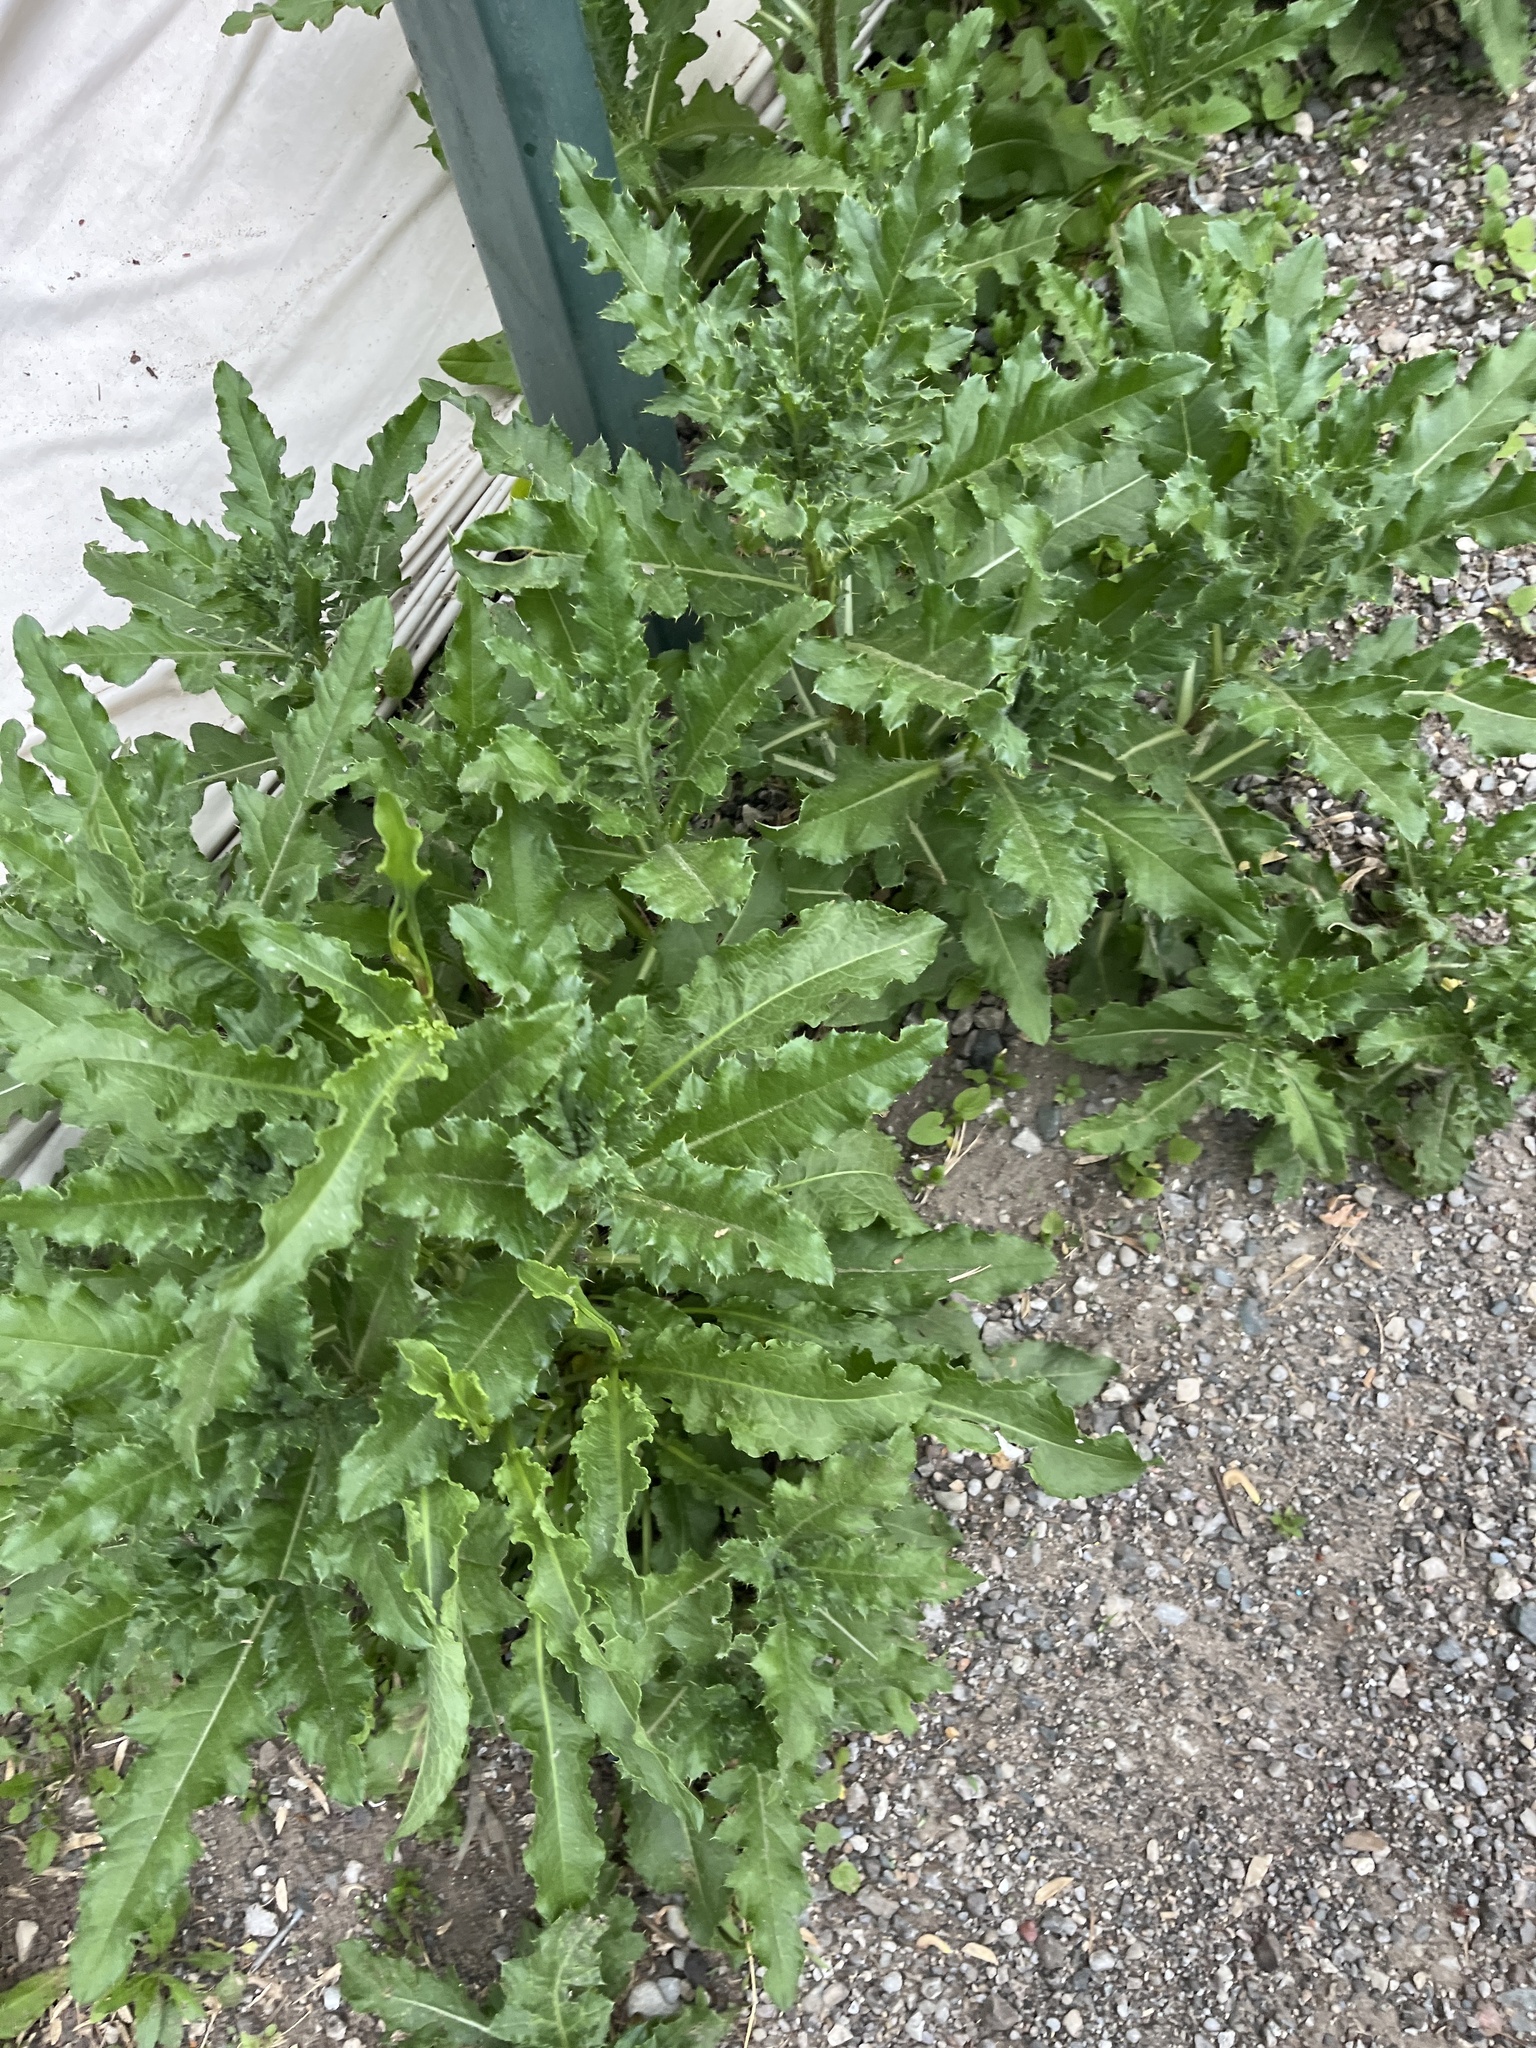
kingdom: Plantae
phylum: Tracheophyta
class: Magnoliopsida
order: Asterales
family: Asteraceae
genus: Cirsium
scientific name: Cirsium arvense
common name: Creeping thistle
